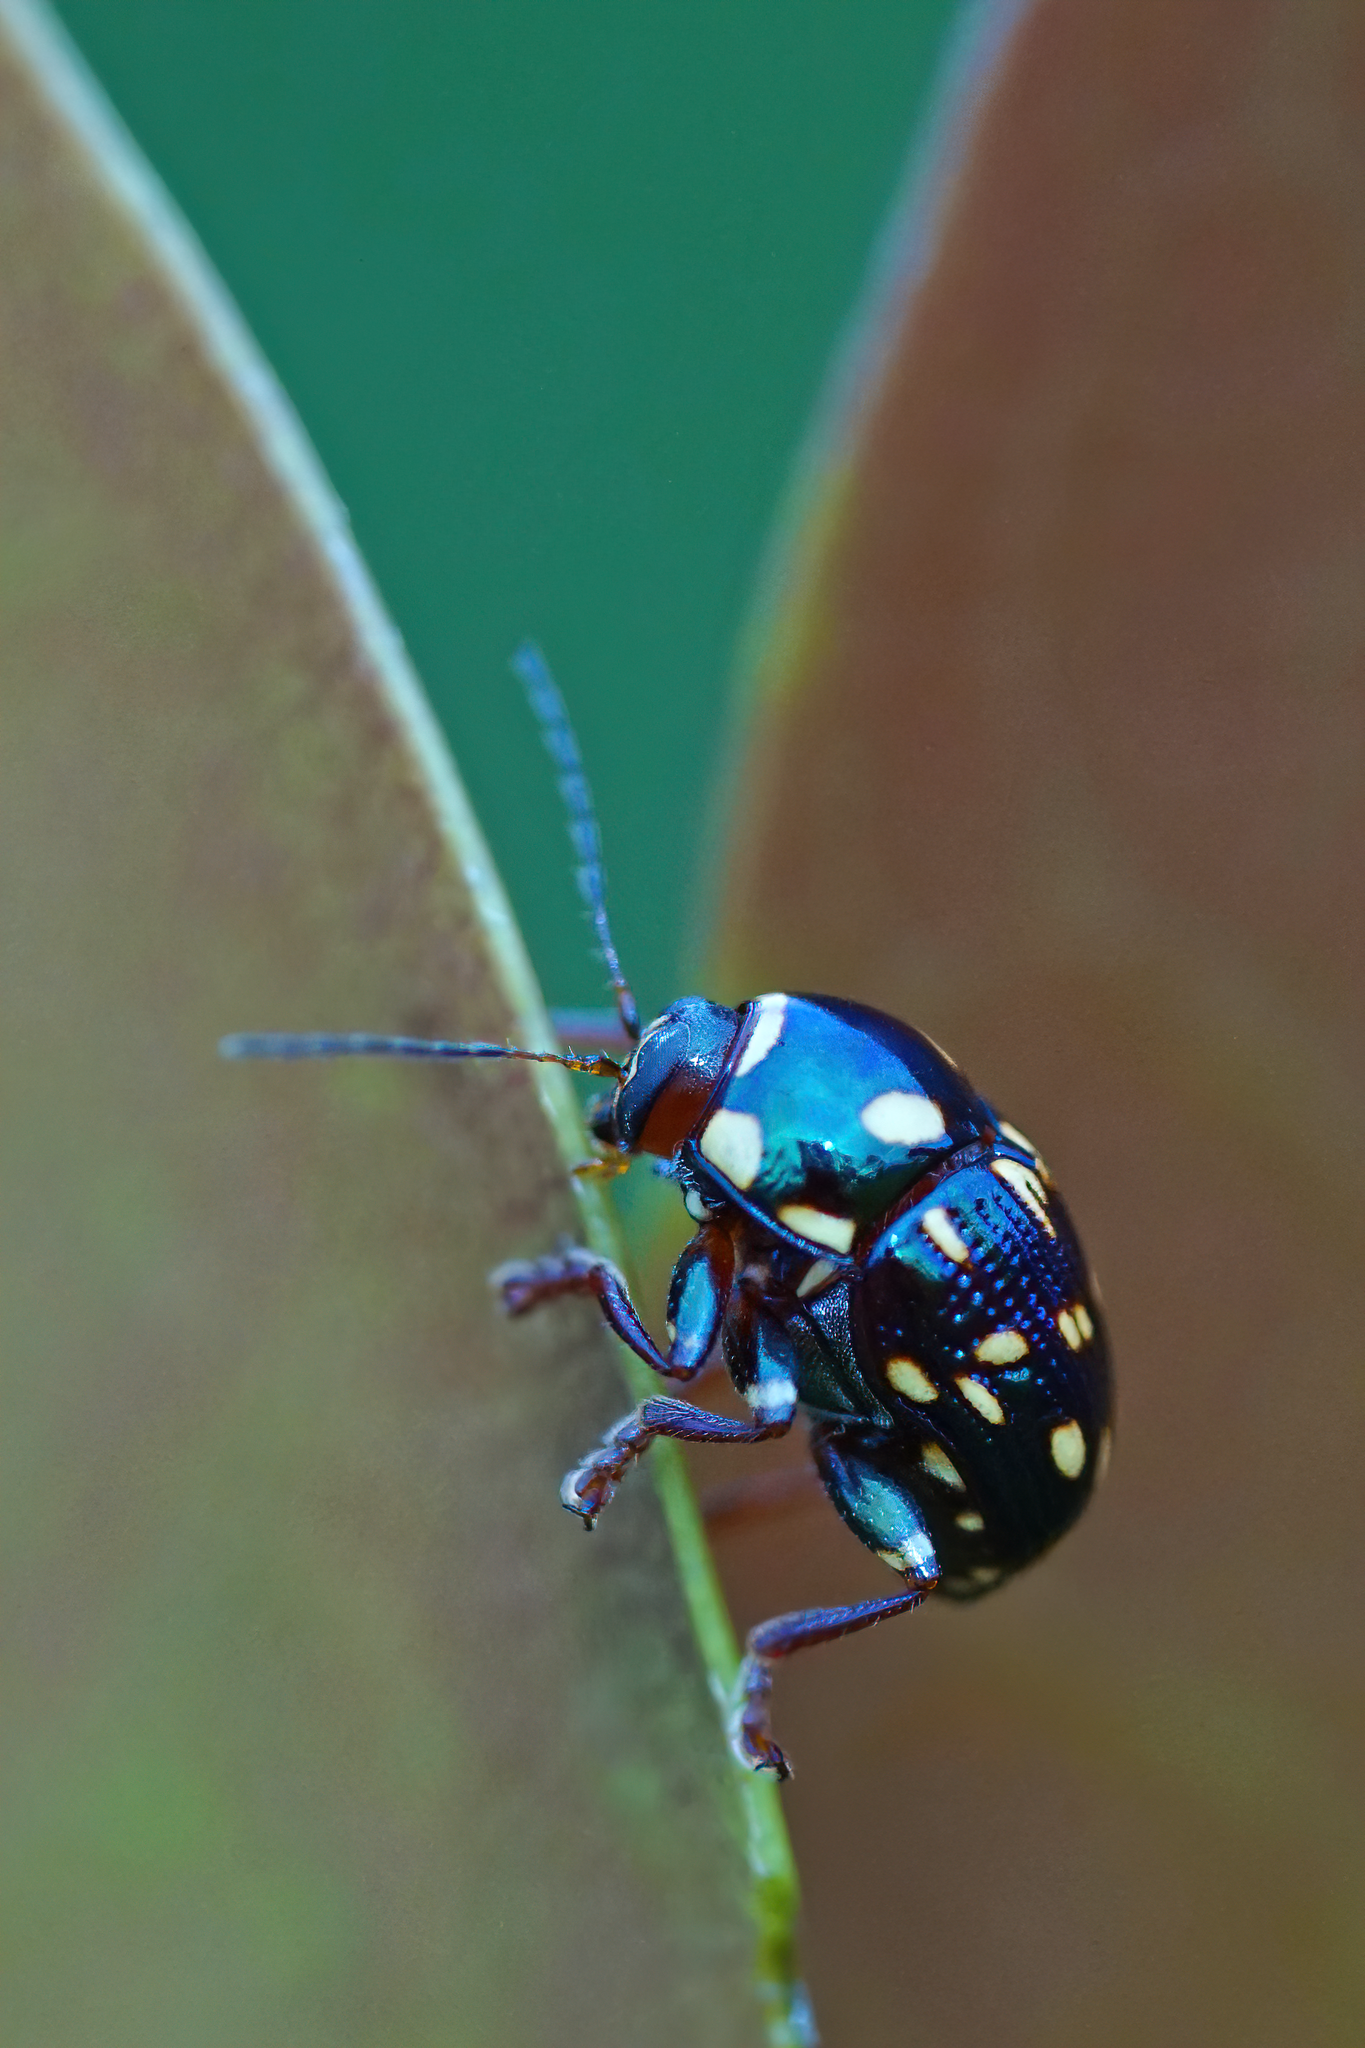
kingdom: Animalia
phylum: Arthropoda
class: Insecta
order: Coleoptera
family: Chrysomelidae
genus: Cryptocephalus
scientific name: Cryptocephalus nigrocinctus
